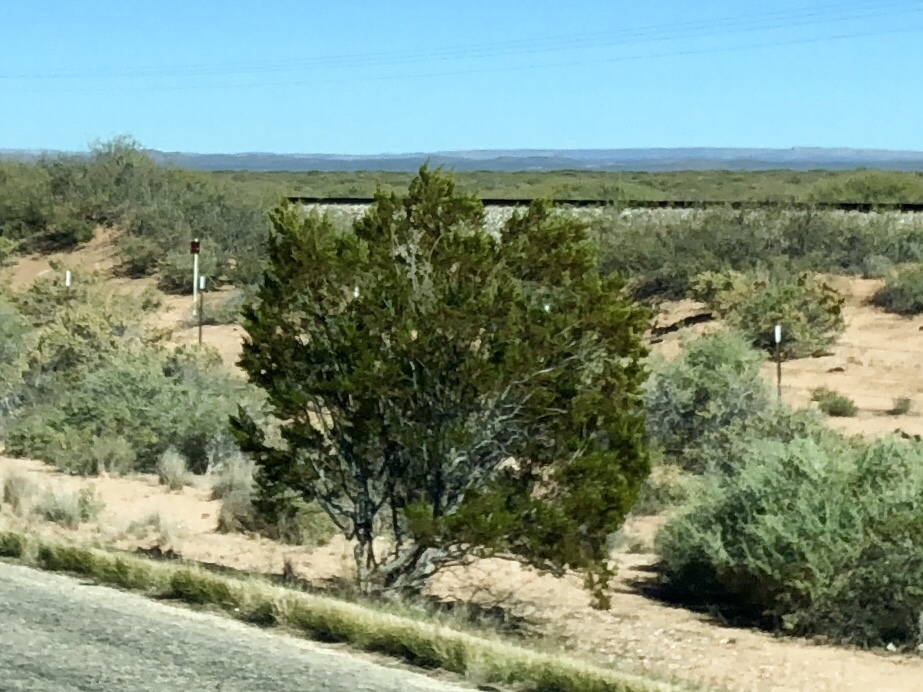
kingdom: Plantae
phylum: Tracheophyta
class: Magnoliopsida
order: Zygophyllales
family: Zygophyllaceae
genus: Larrea
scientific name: Larrea tridentata
